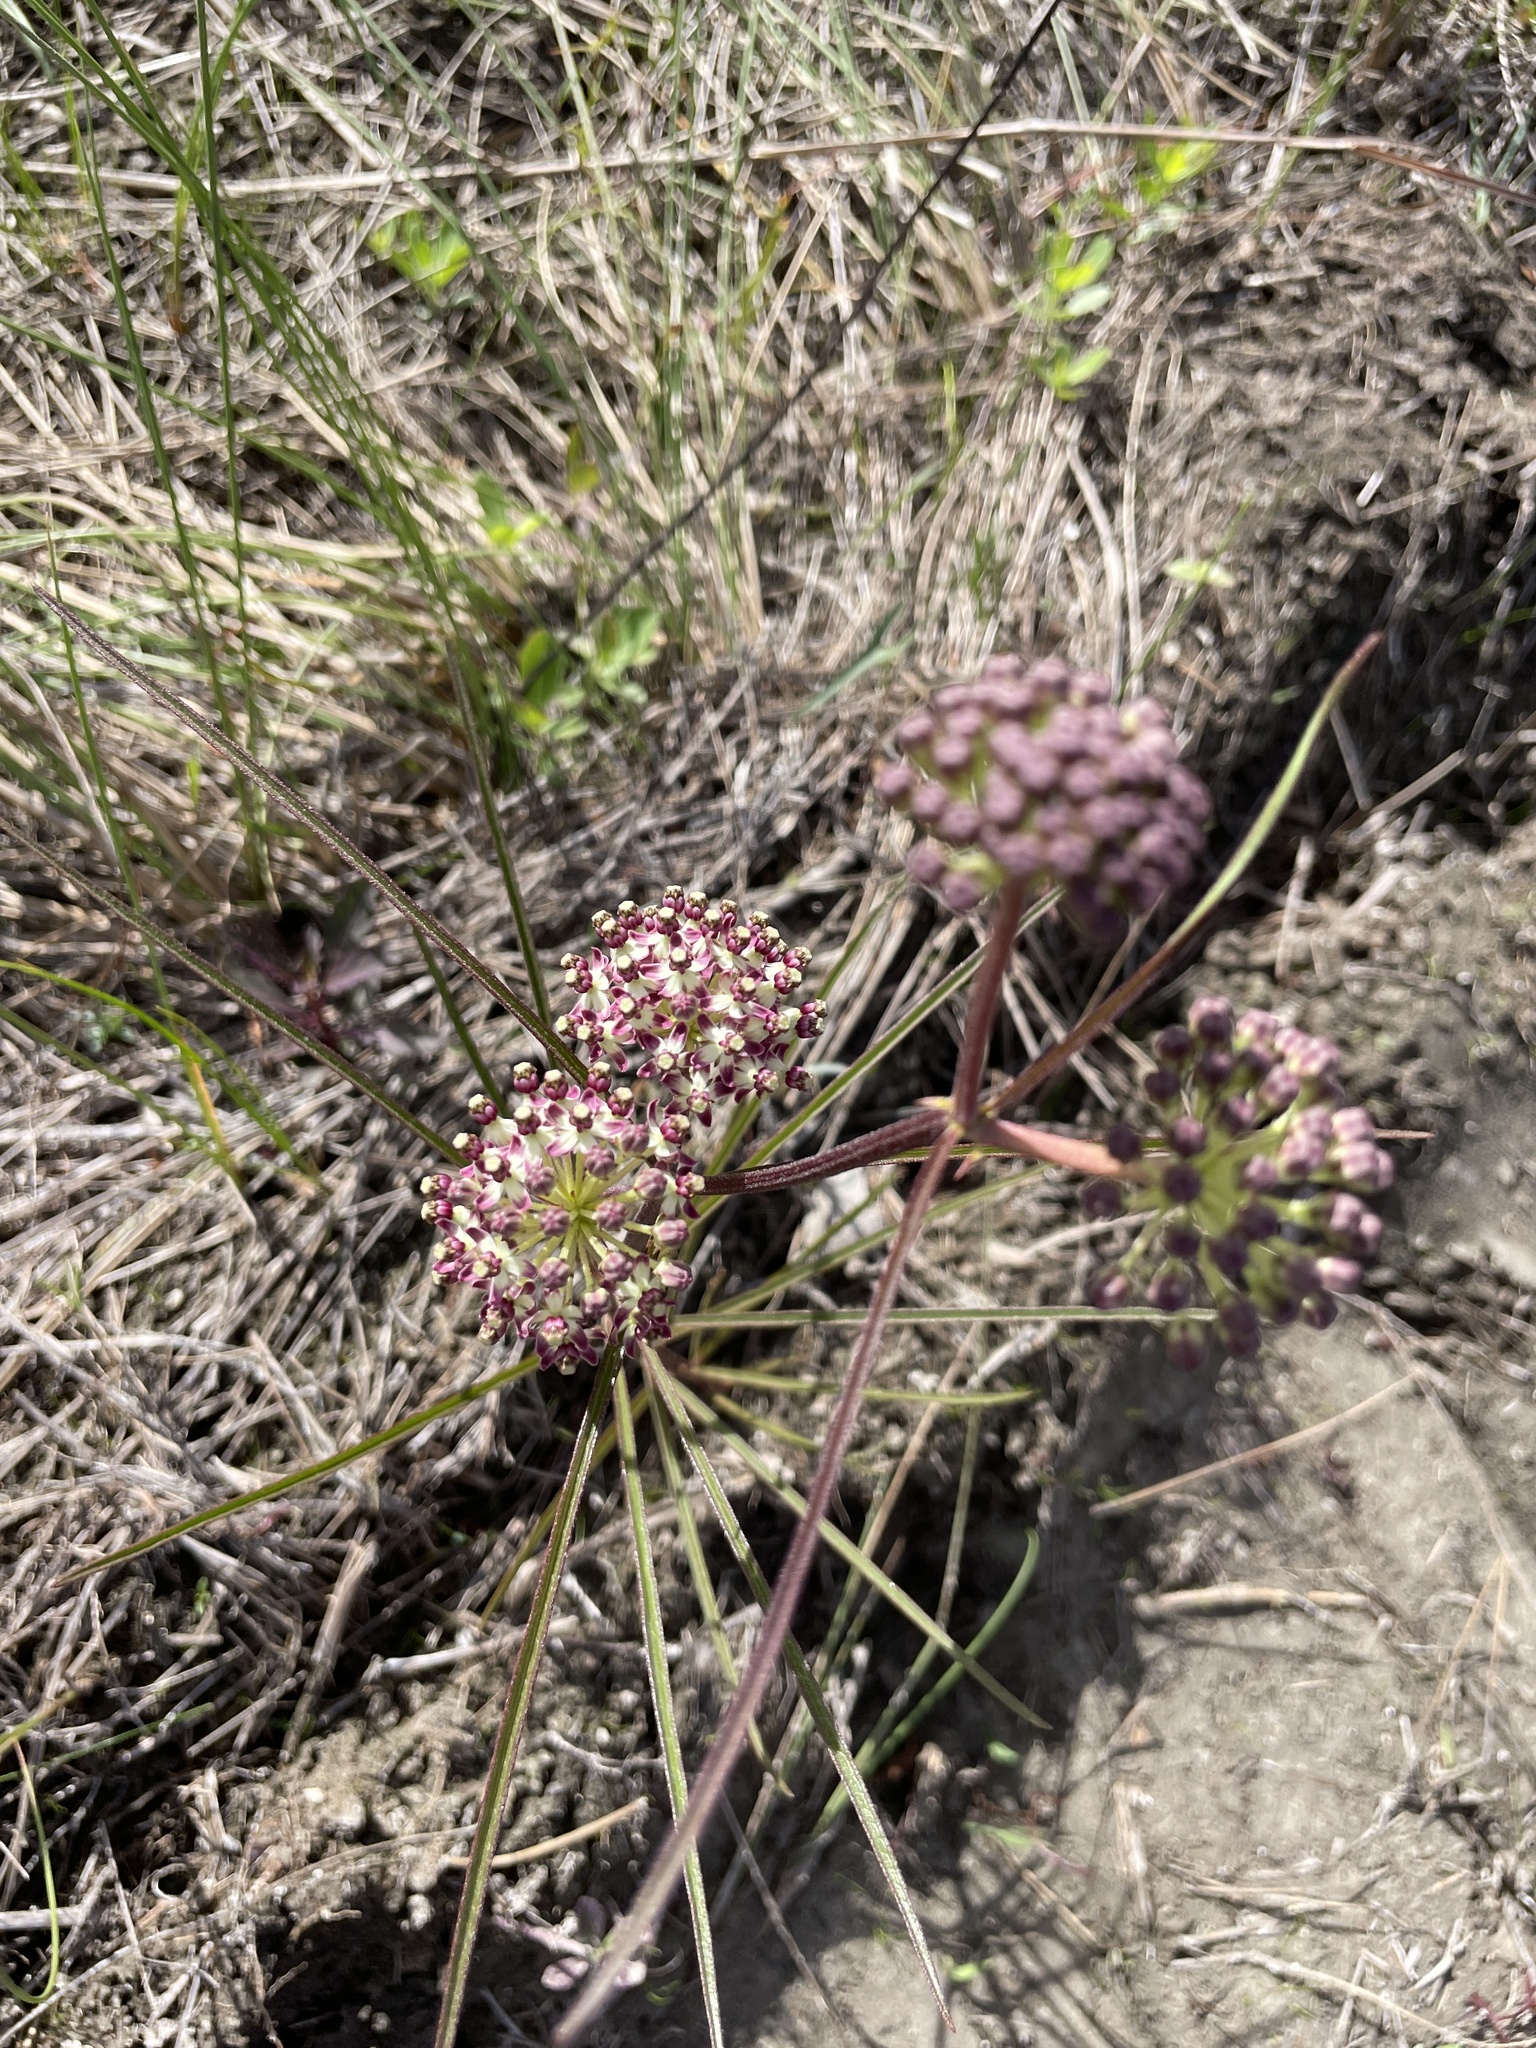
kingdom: Plantae
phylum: Tracheophyta
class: Magnoliopsida
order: Gentianales
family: Apocynaceae
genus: Asclepias
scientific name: Asclepias longifolia
